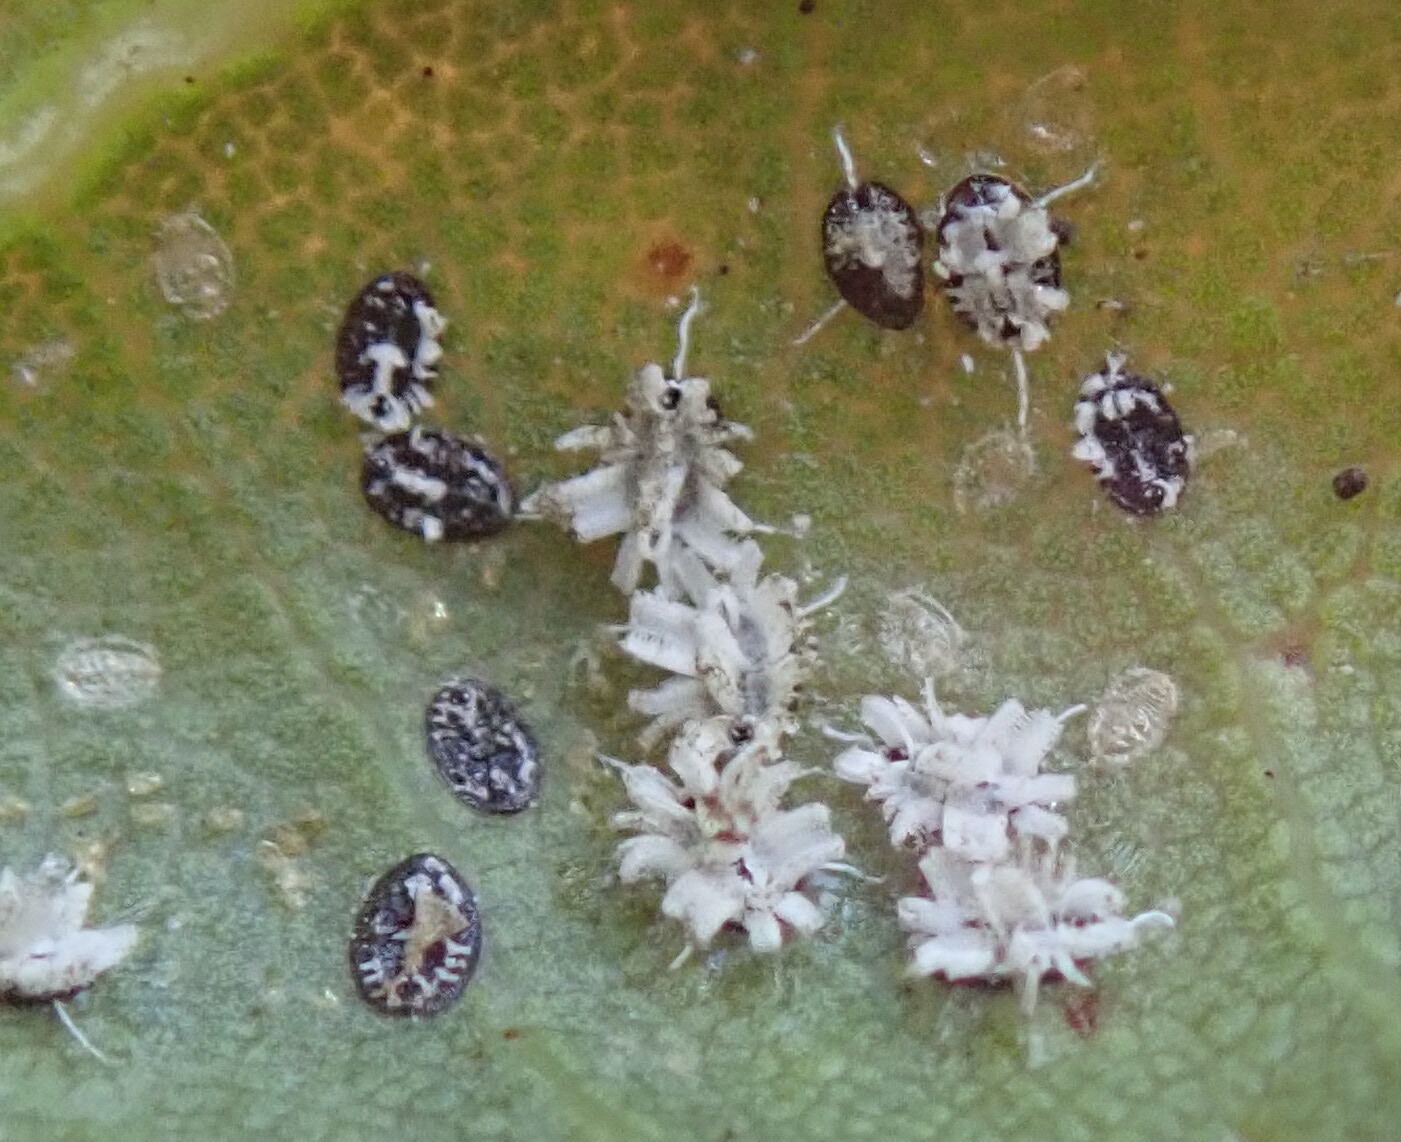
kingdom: Animalia
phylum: Arthropoda
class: Insecta
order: Hemiptera
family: Aleyrodidae
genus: Aleuroplatus
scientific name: Aleuroplatus coronata
